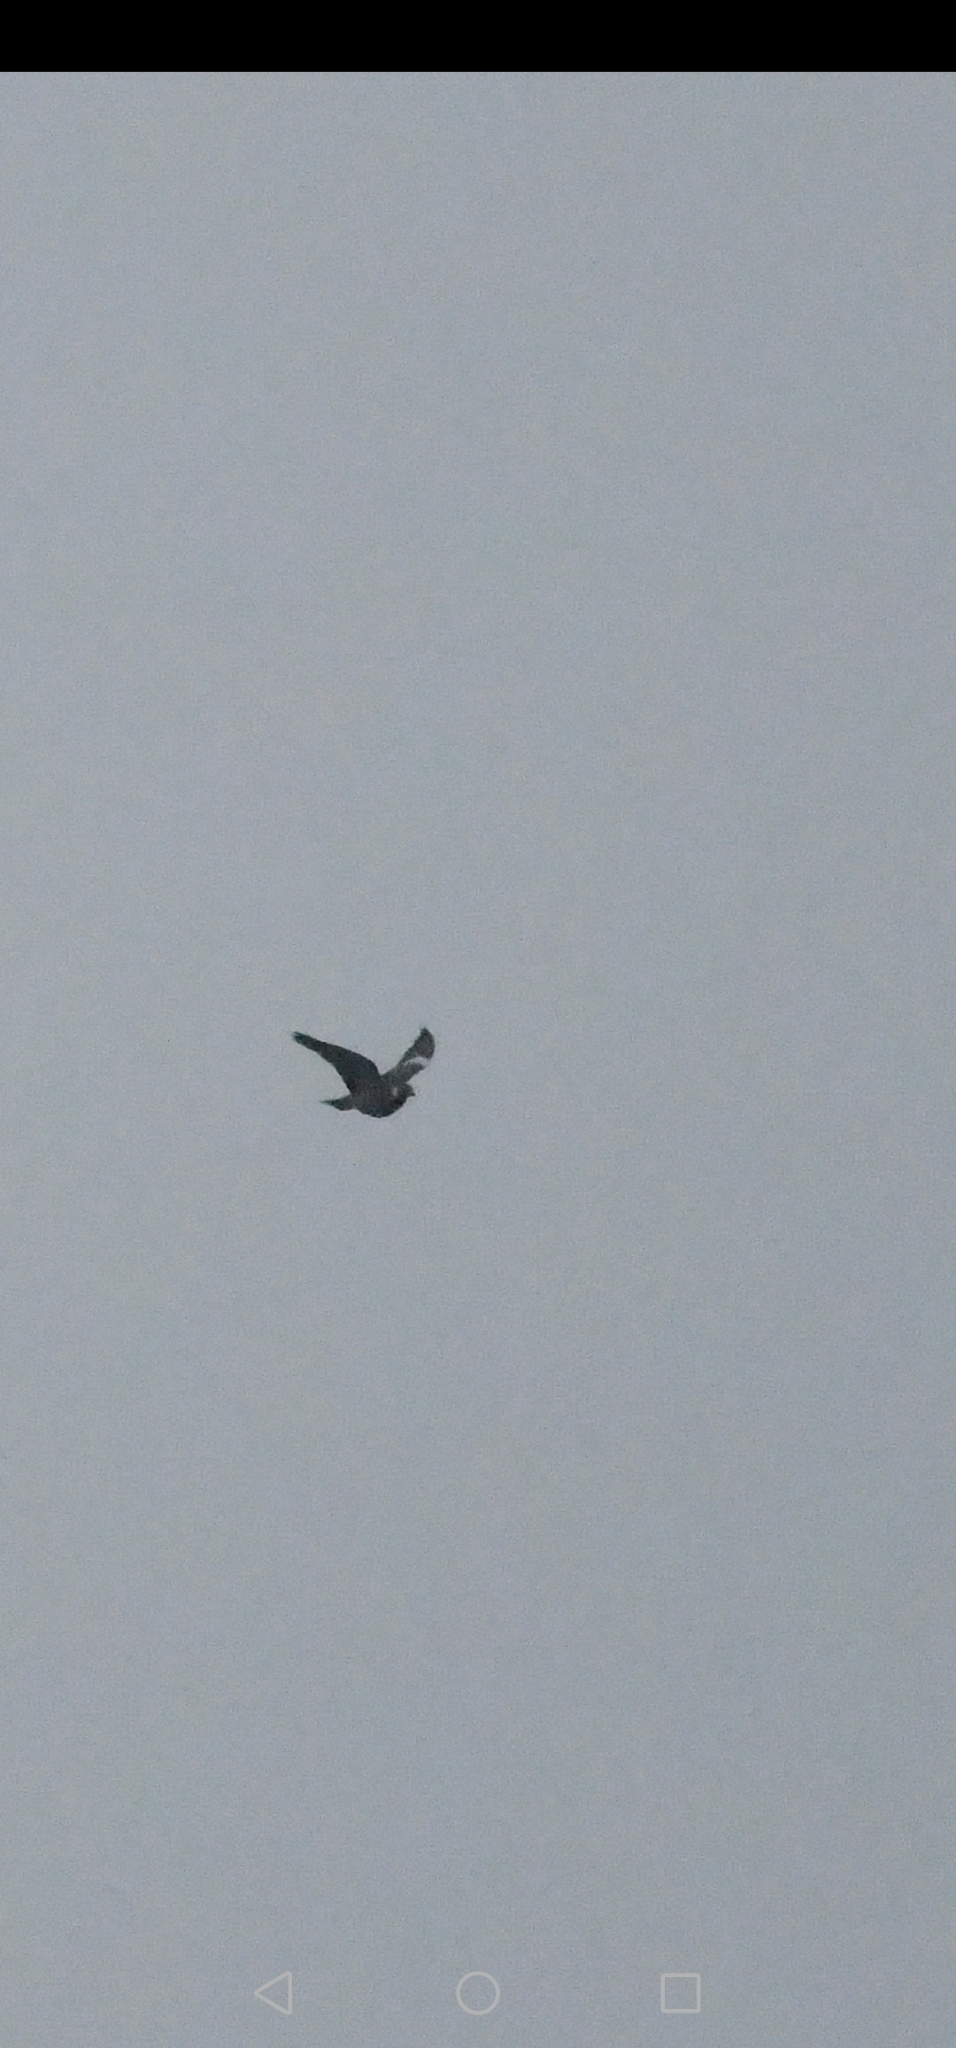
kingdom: Animalia
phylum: Chordata
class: Aves
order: Columbiformes
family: Columbidae
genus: Columba
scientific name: Columba palumbus
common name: Common wood pigeon
